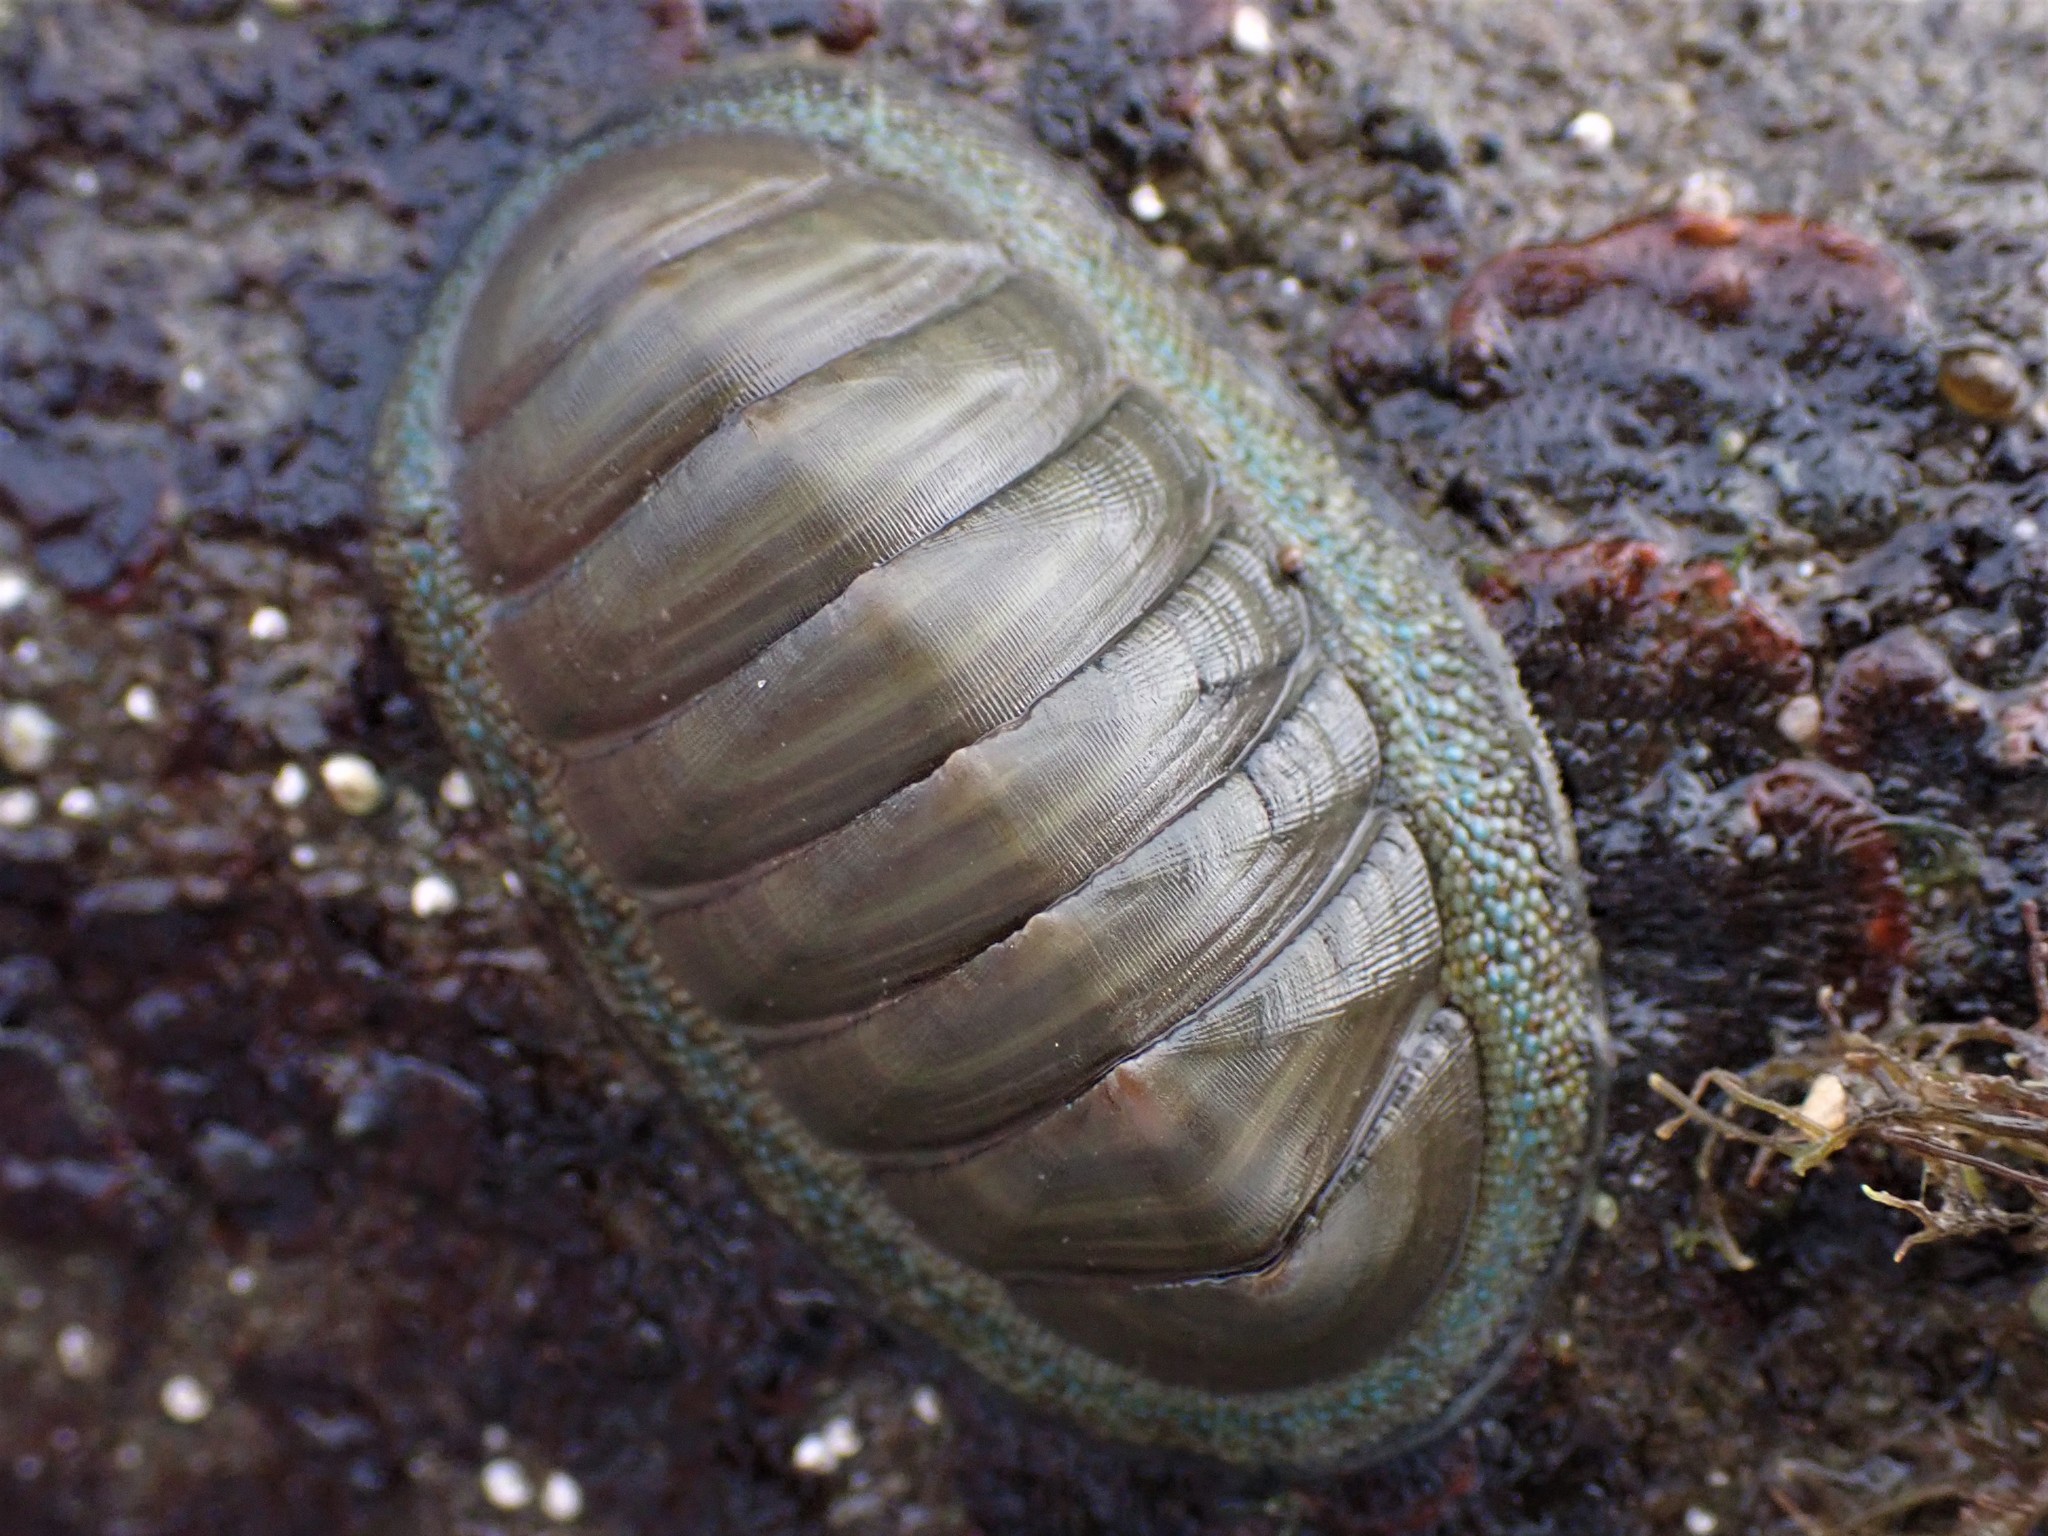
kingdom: Animalia
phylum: Mollusca
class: Polyplacophora
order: Chitonida
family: Chitonidae
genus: Chiton
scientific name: Chiton glaucus
